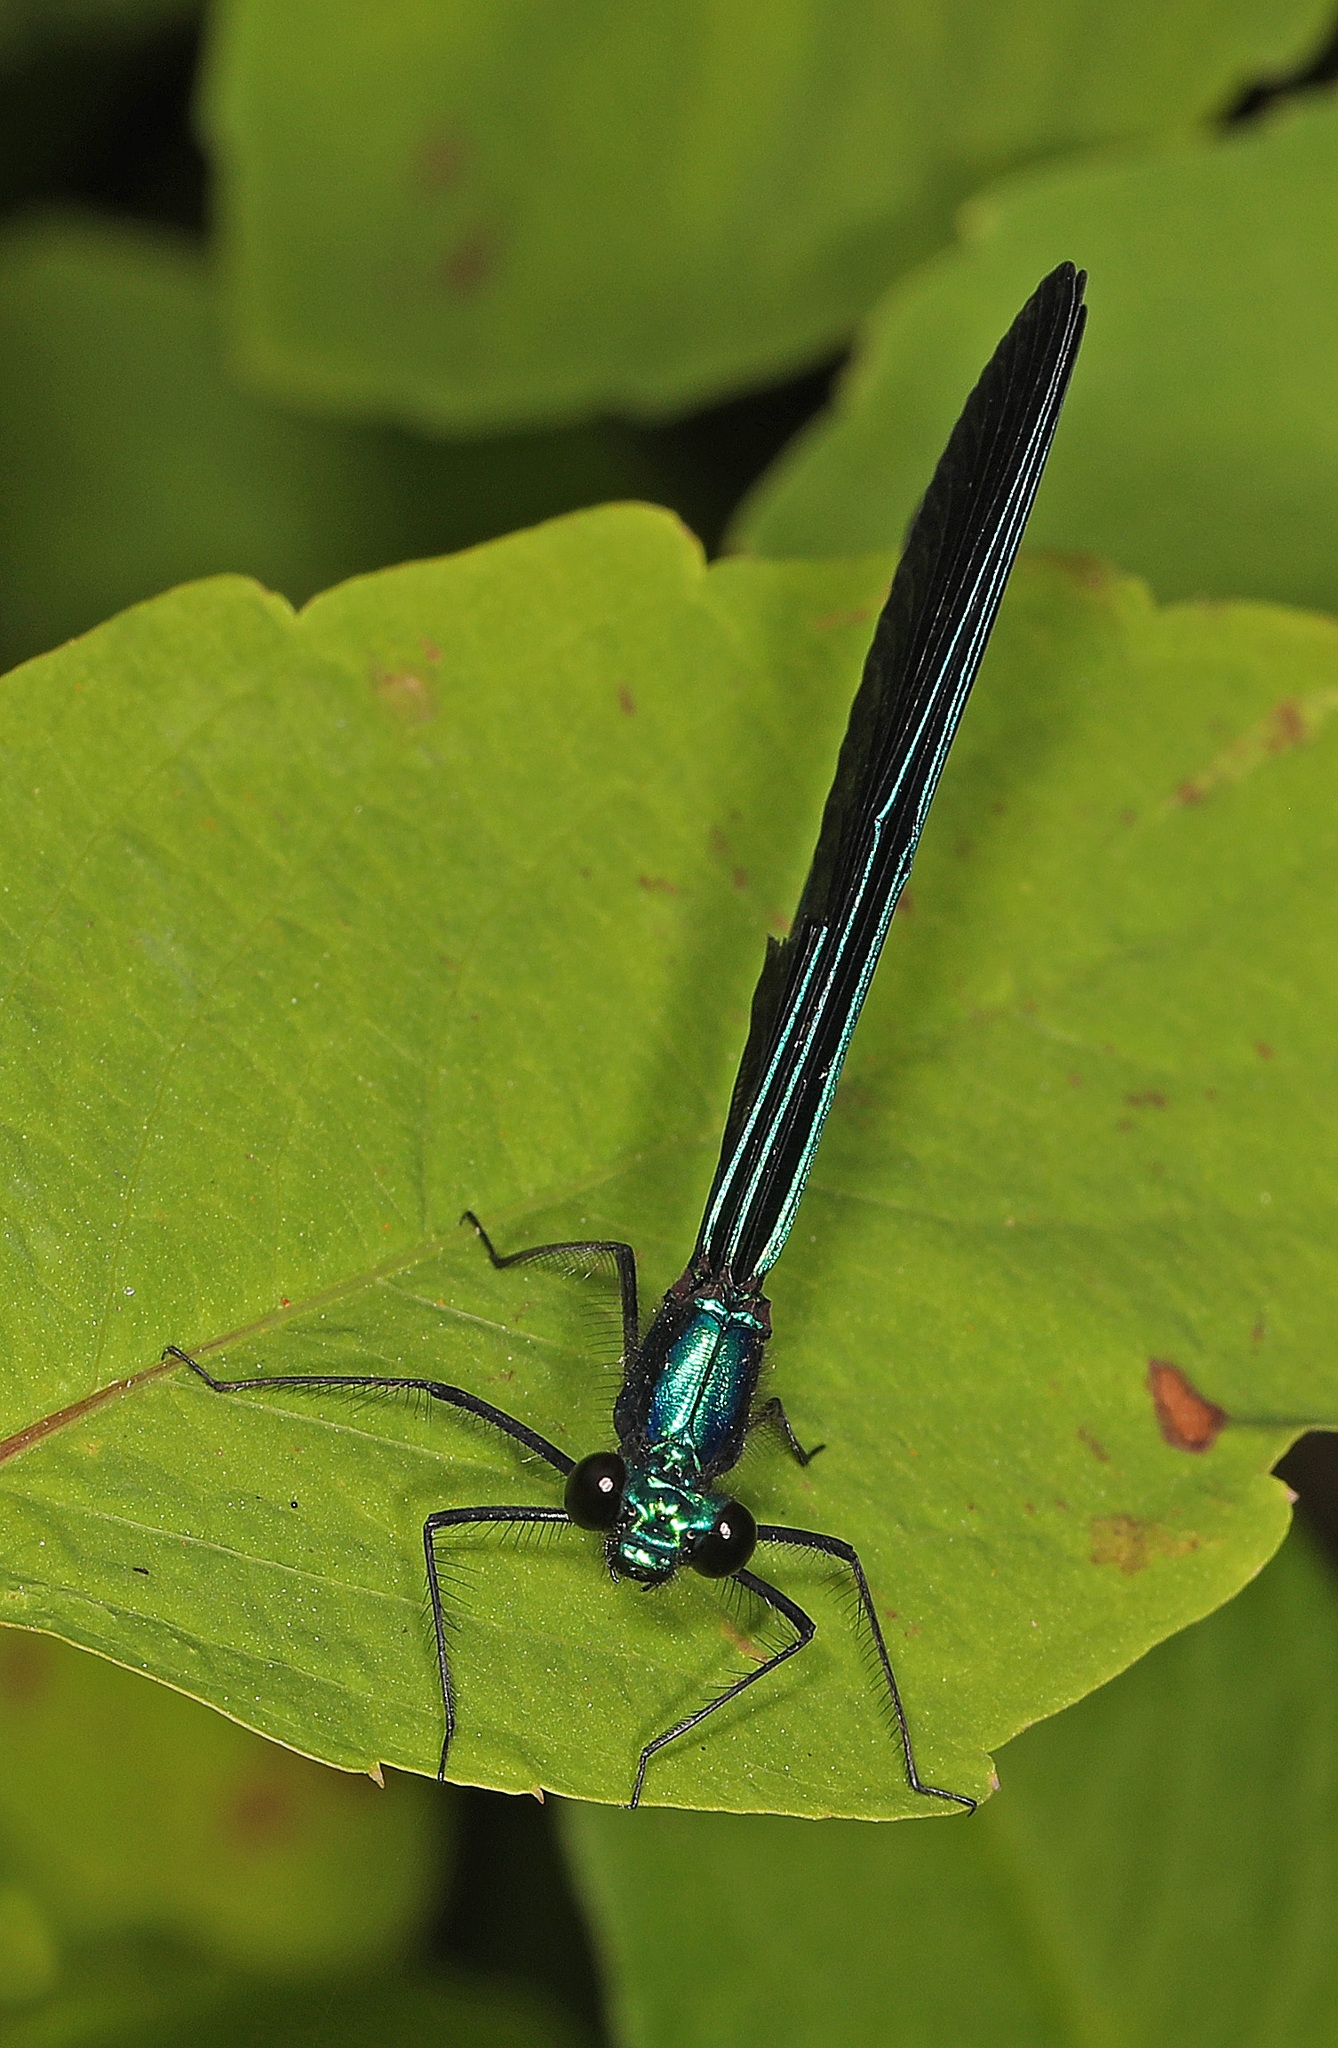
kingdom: Animalia
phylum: Arthropoda
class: Insecta
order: Odonata
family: Calopterygidae
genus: Calopteryx
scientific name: Calopteryx maculata
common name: Ebony jewelwing
